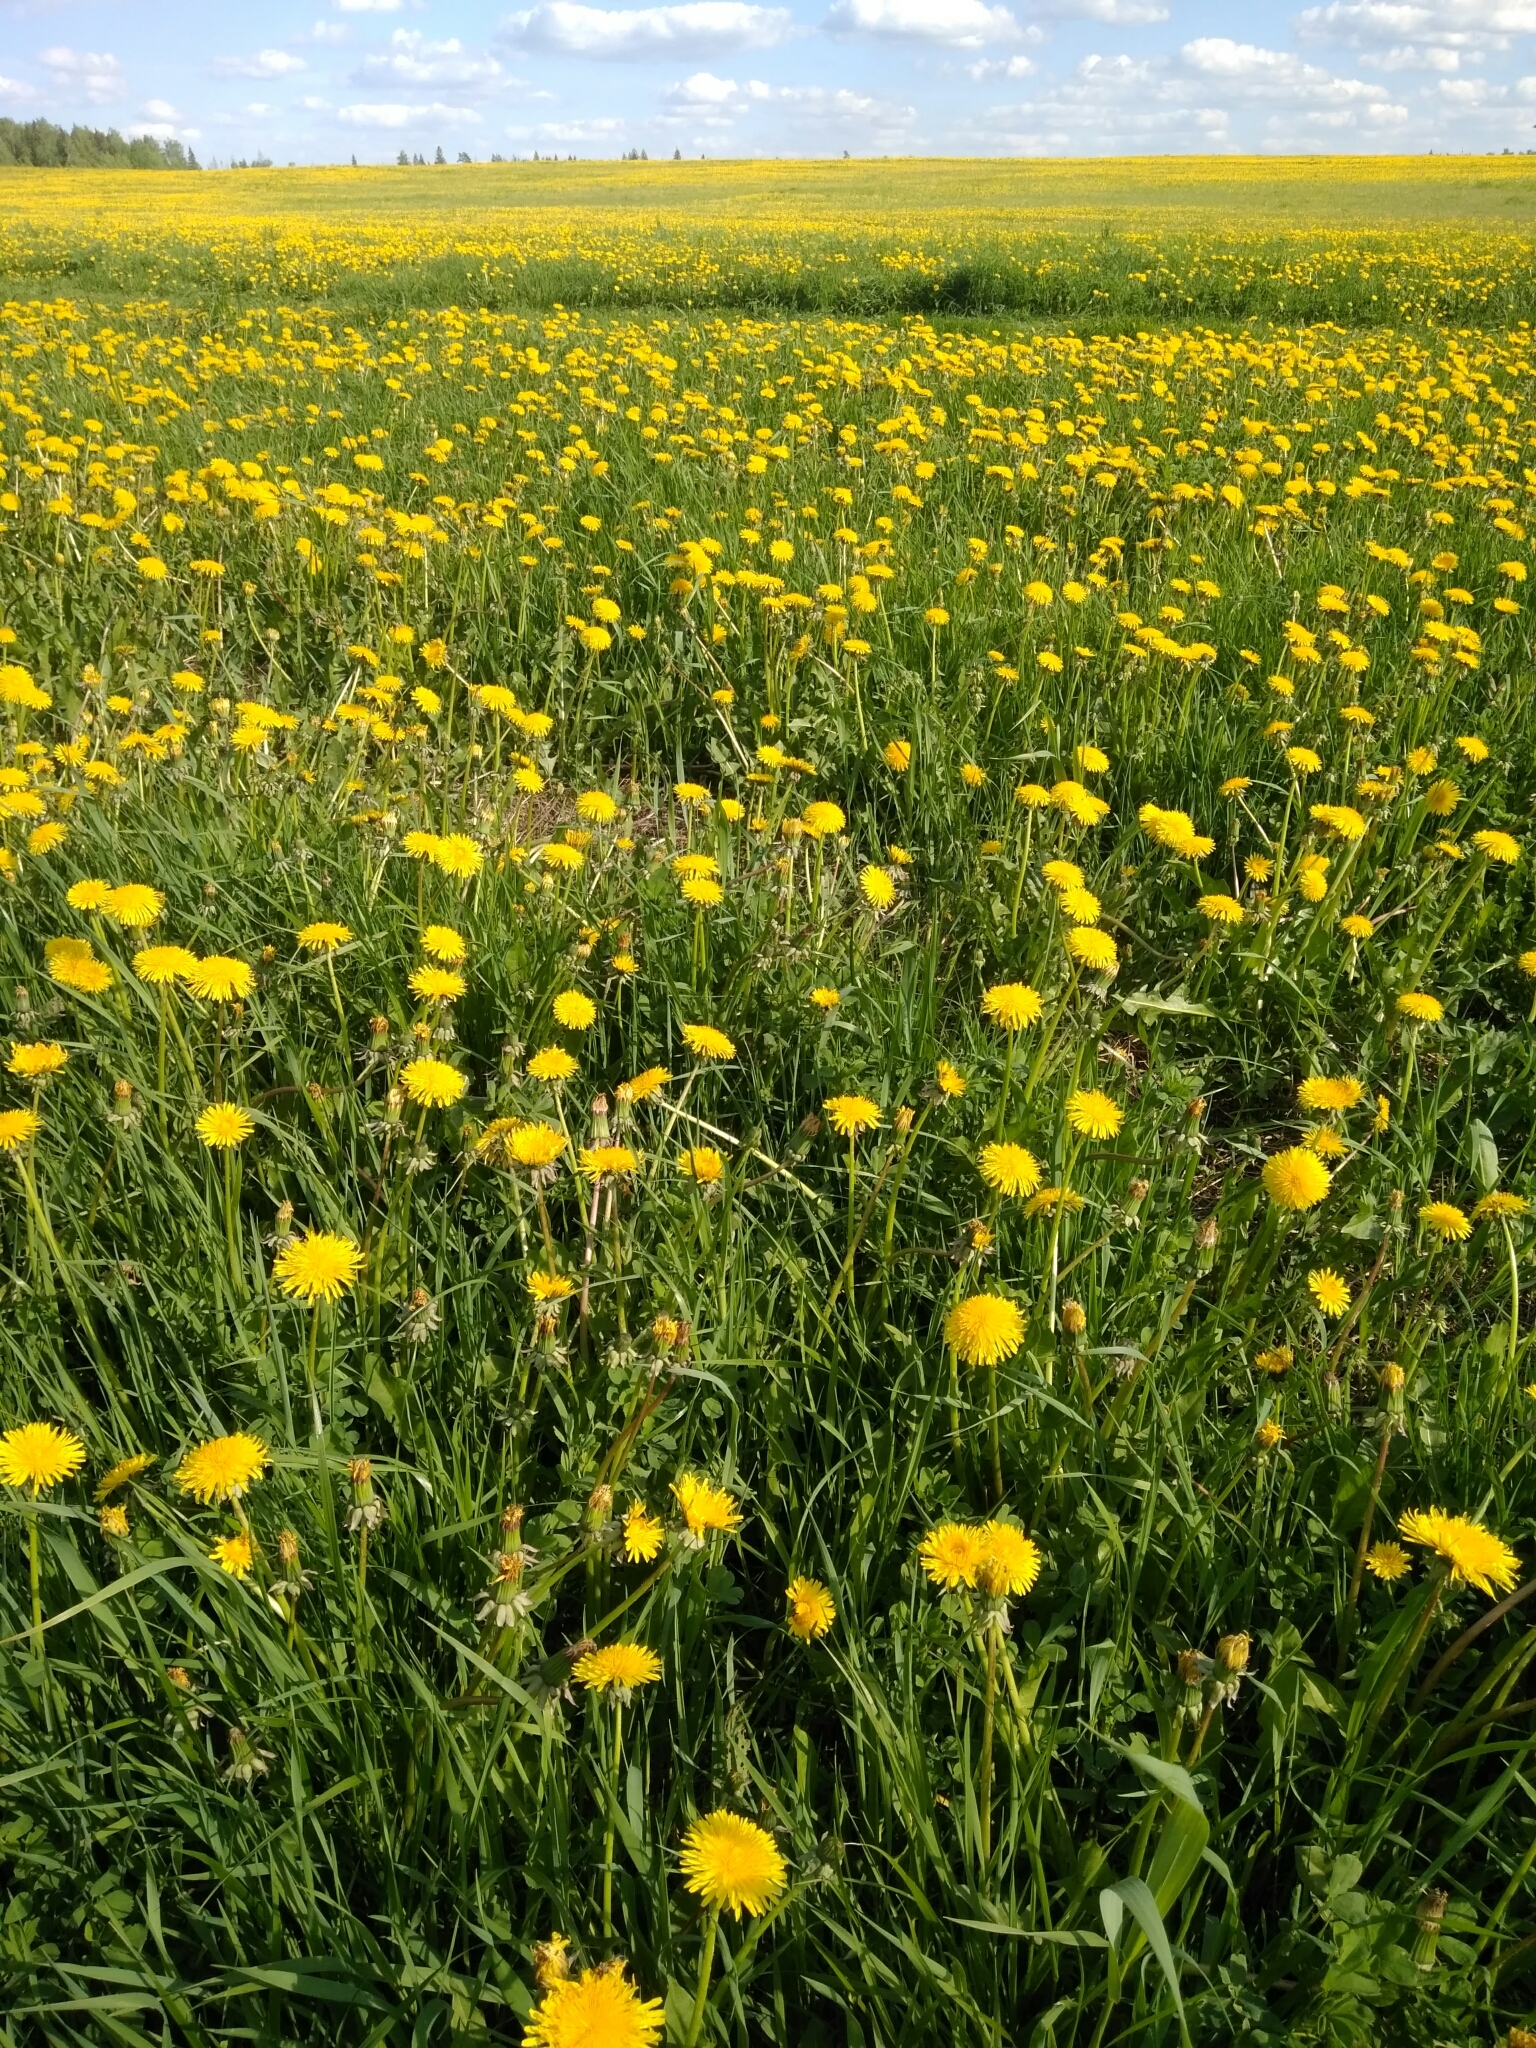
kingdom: Plantae
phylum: Tracheophyta
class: Magnoliopsida
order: Asterales
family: Asteraceae
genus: Taraxacum
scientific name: Taraxacum officinale
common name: Common dandelion
